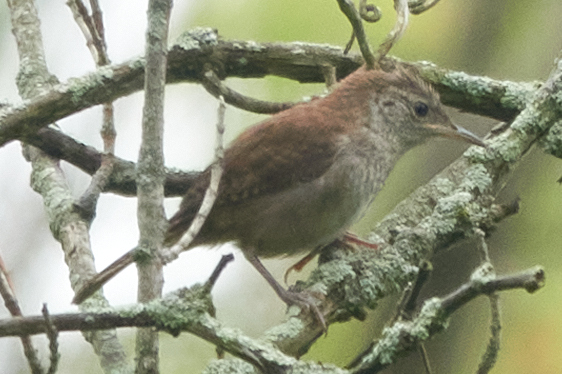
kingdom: Animalia
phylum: Chordata
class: Aves
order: Passeriformes
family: Troglodytidae
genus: Troglodytes
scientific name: Troglodytes aedon
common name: House wren
